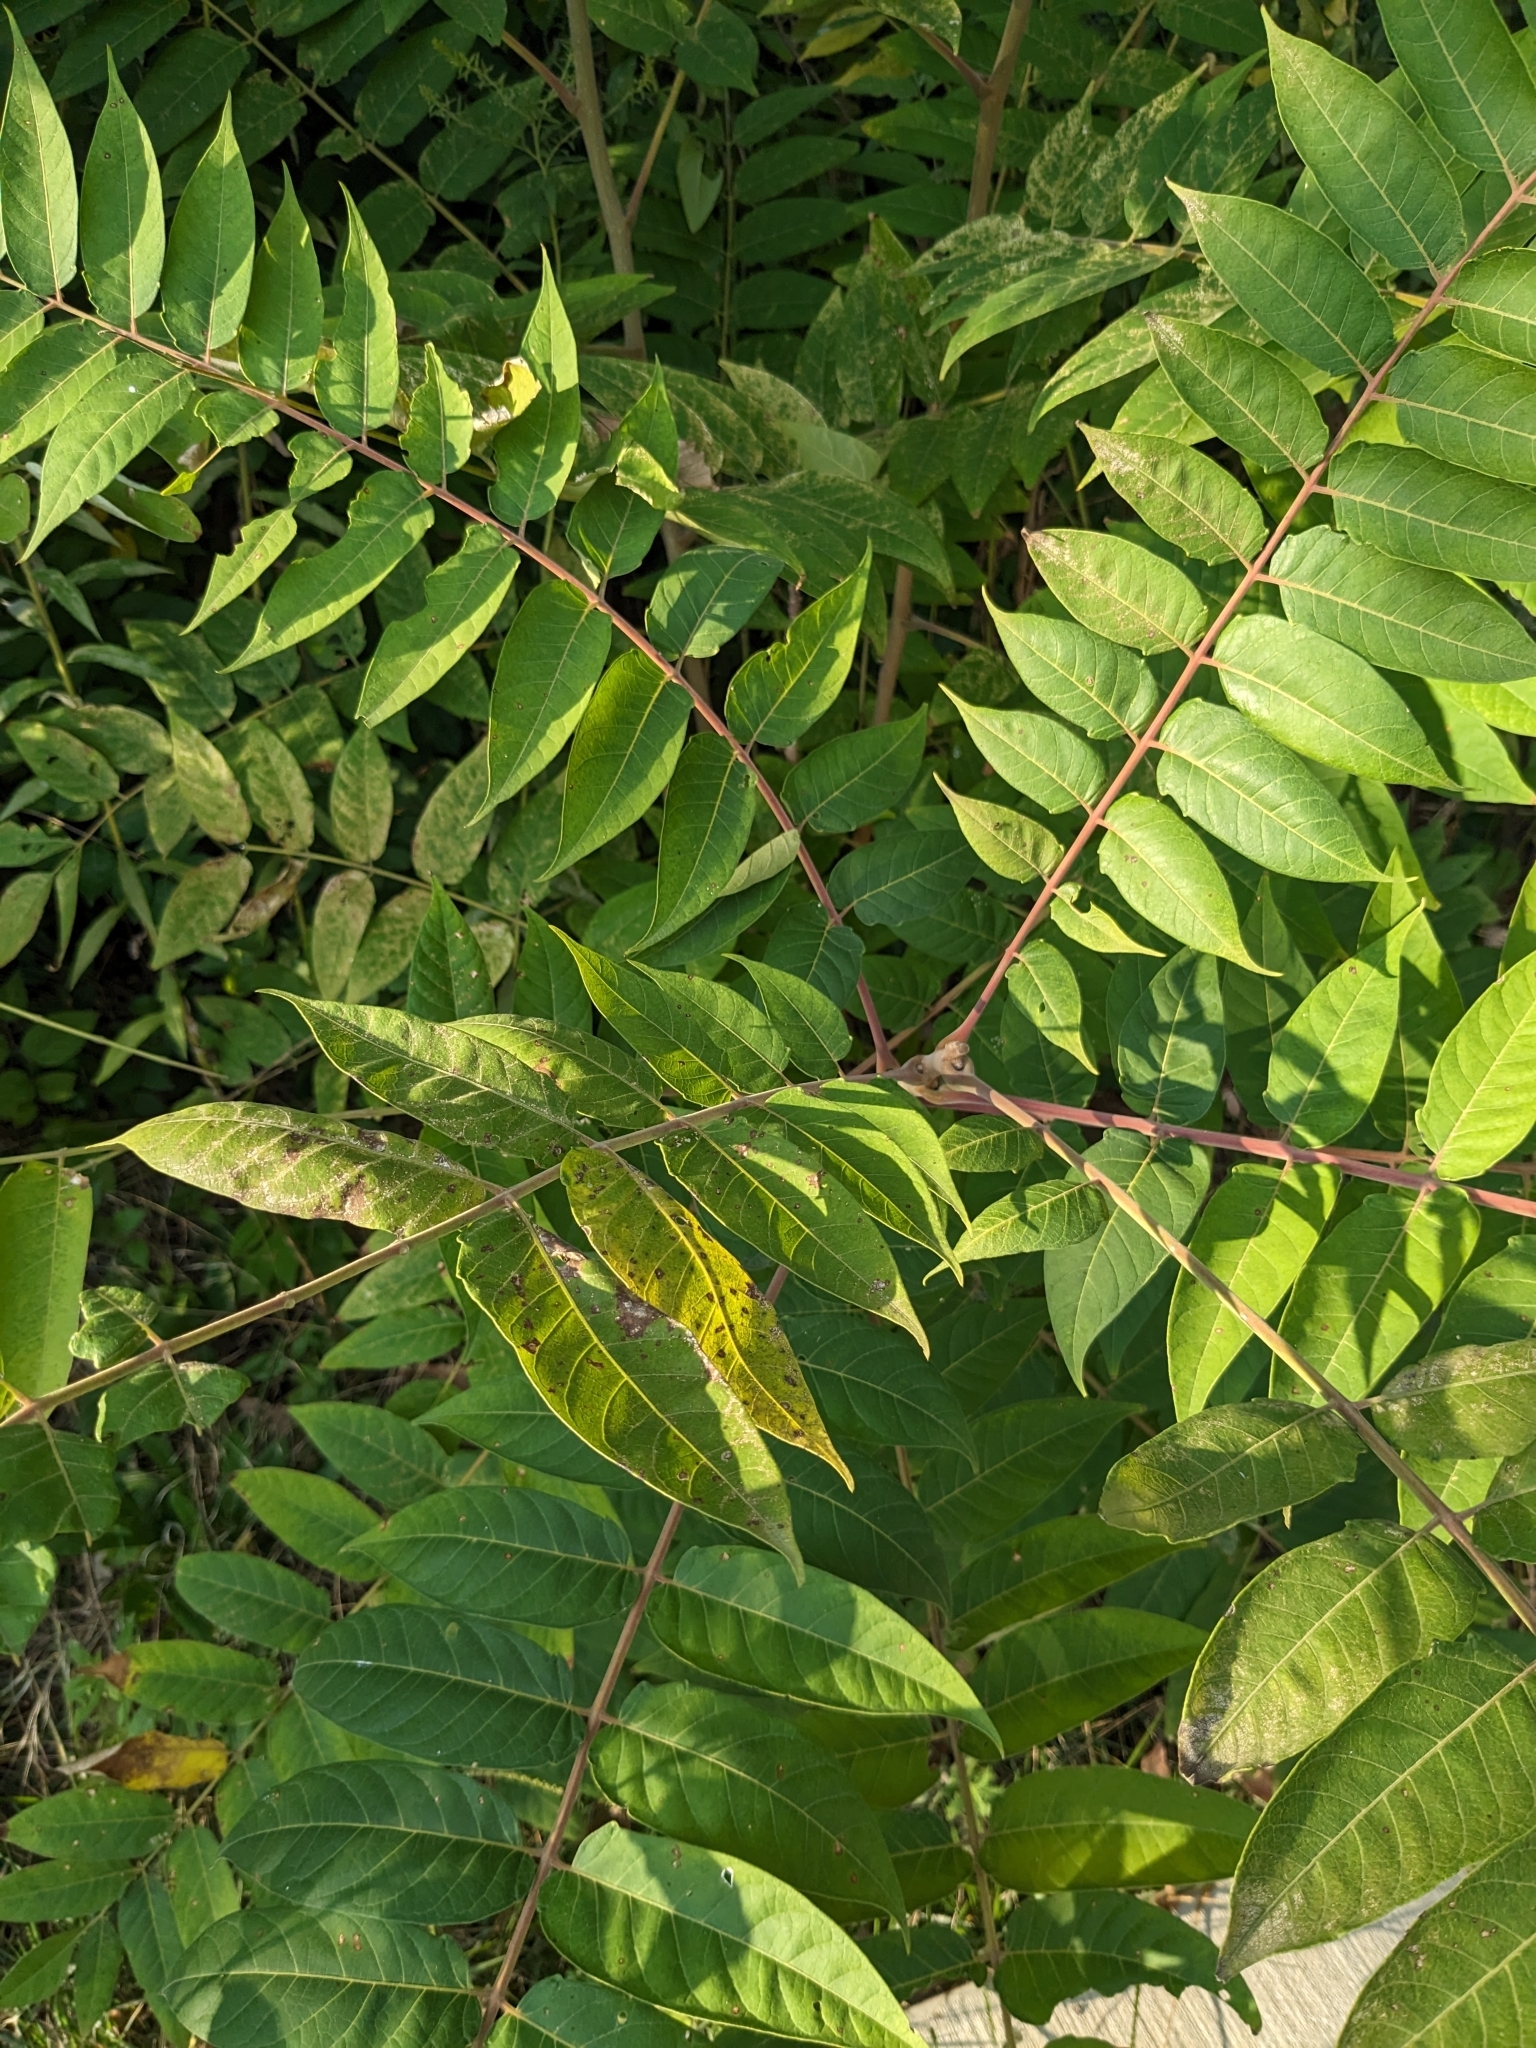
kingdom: Plantae
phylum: Tracheophyta
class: Magnoliopsida
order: Sapindales
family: Simaroubaceae
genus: Ailanthus
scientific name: Ailanthus altissima
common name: Tree-of-heaven
